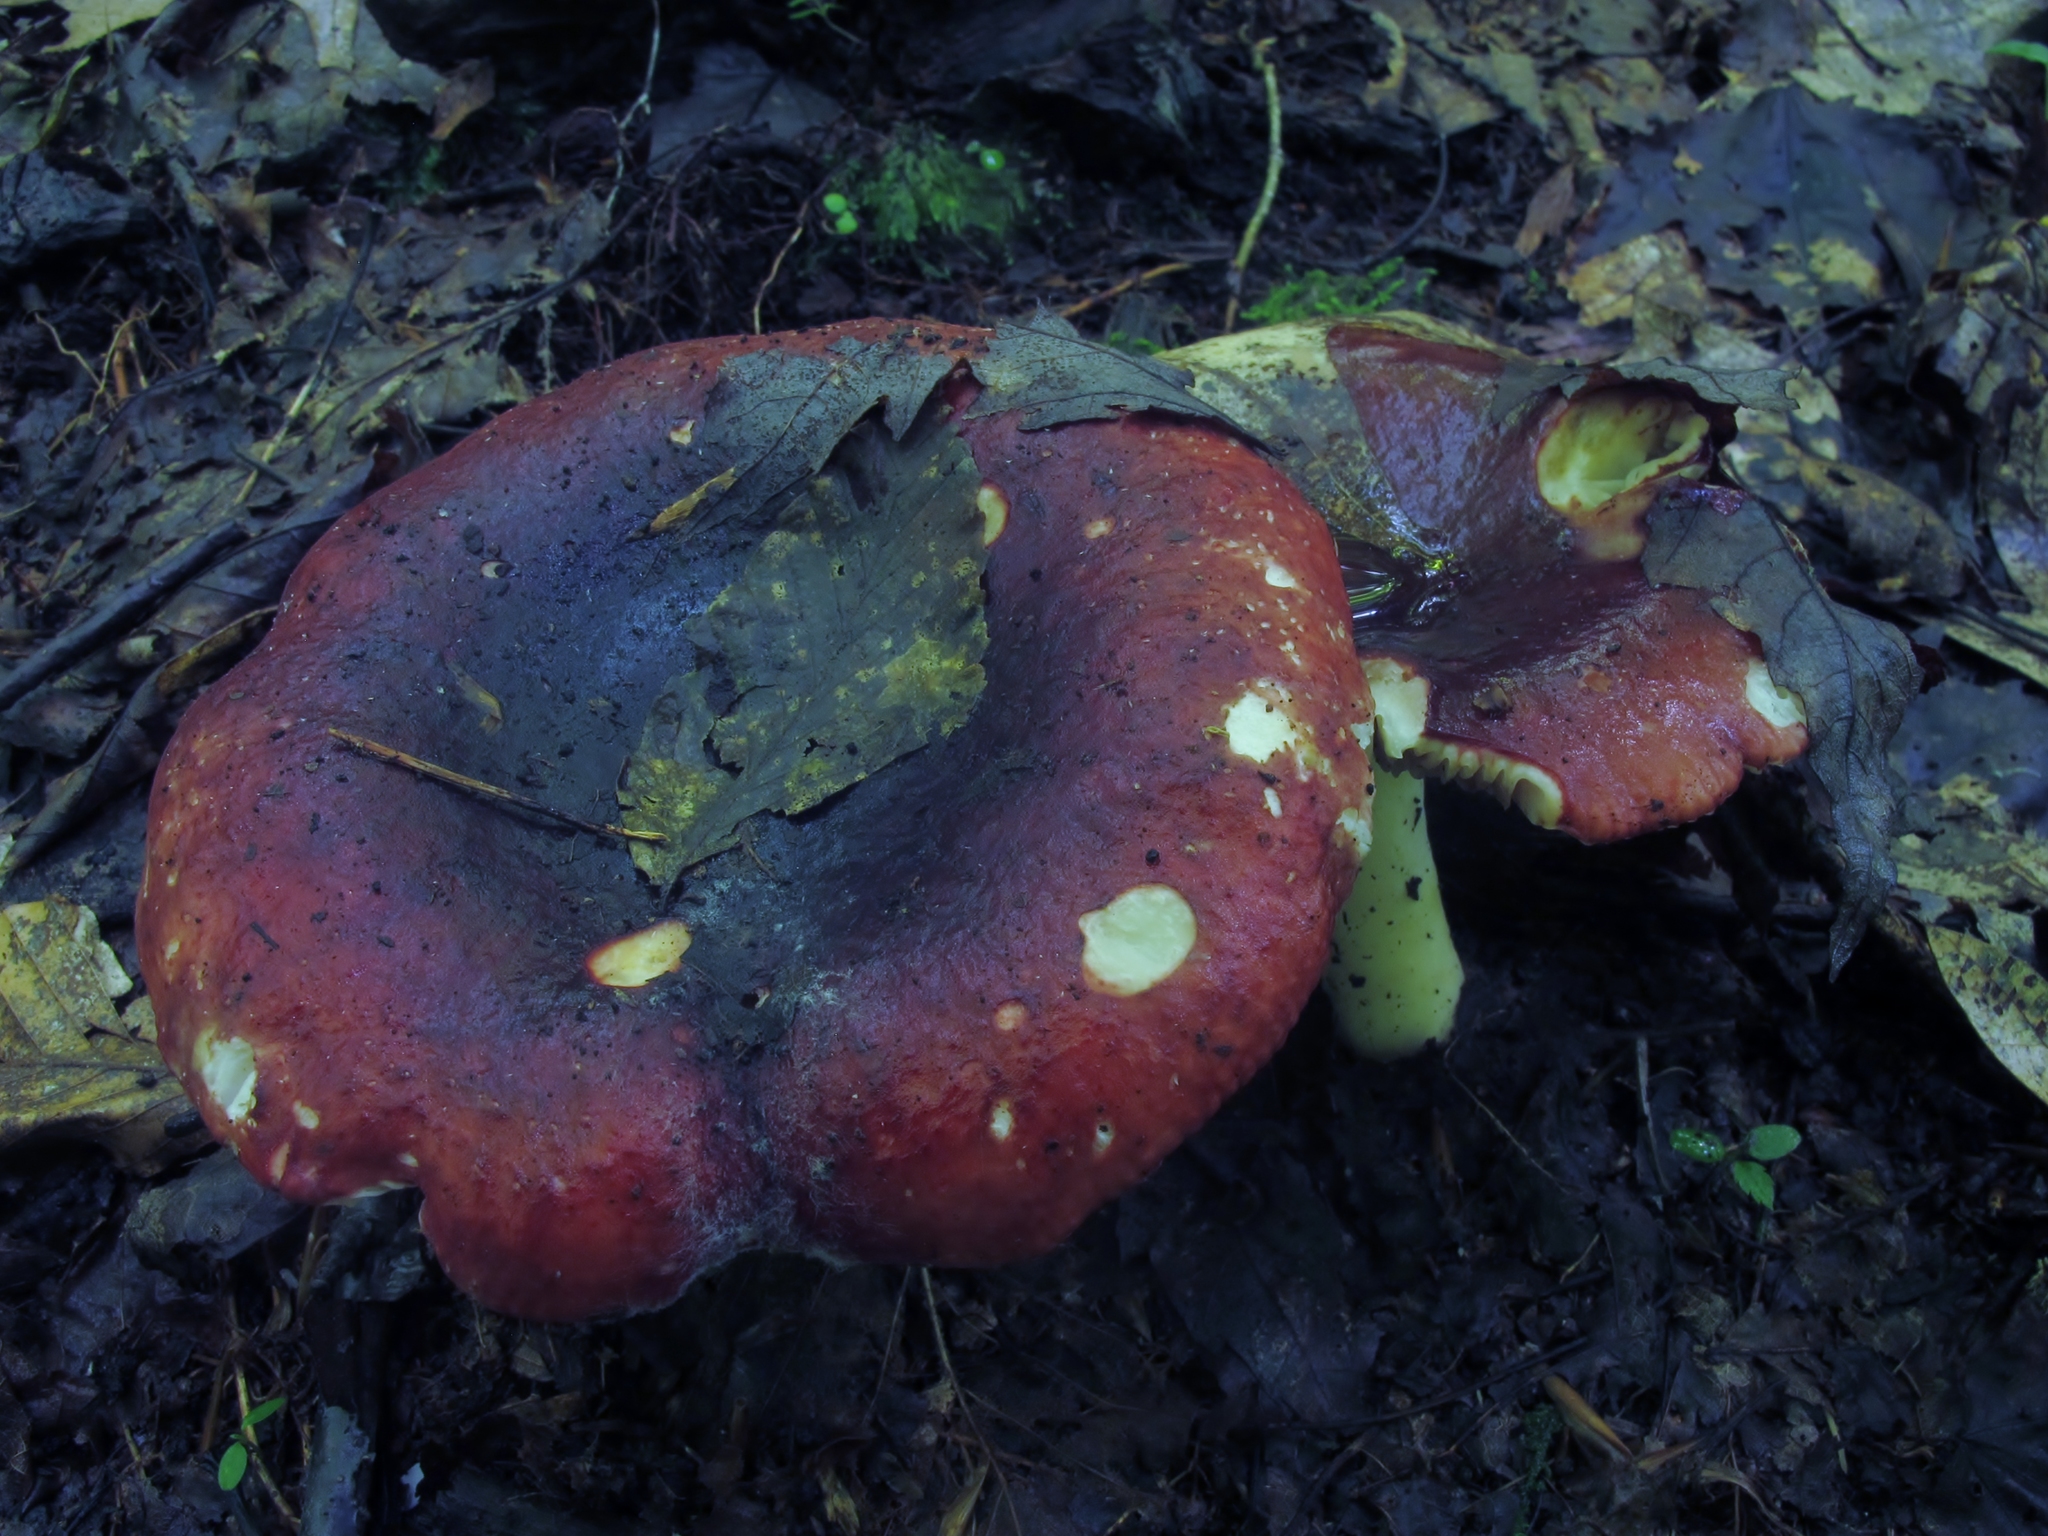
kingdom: Fungi
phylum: Basidiomycota
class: Agaricomycetes
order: Russulales
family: Russulaceae
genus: Russula
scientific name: Russula vinacea
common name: Blackish-red russula
